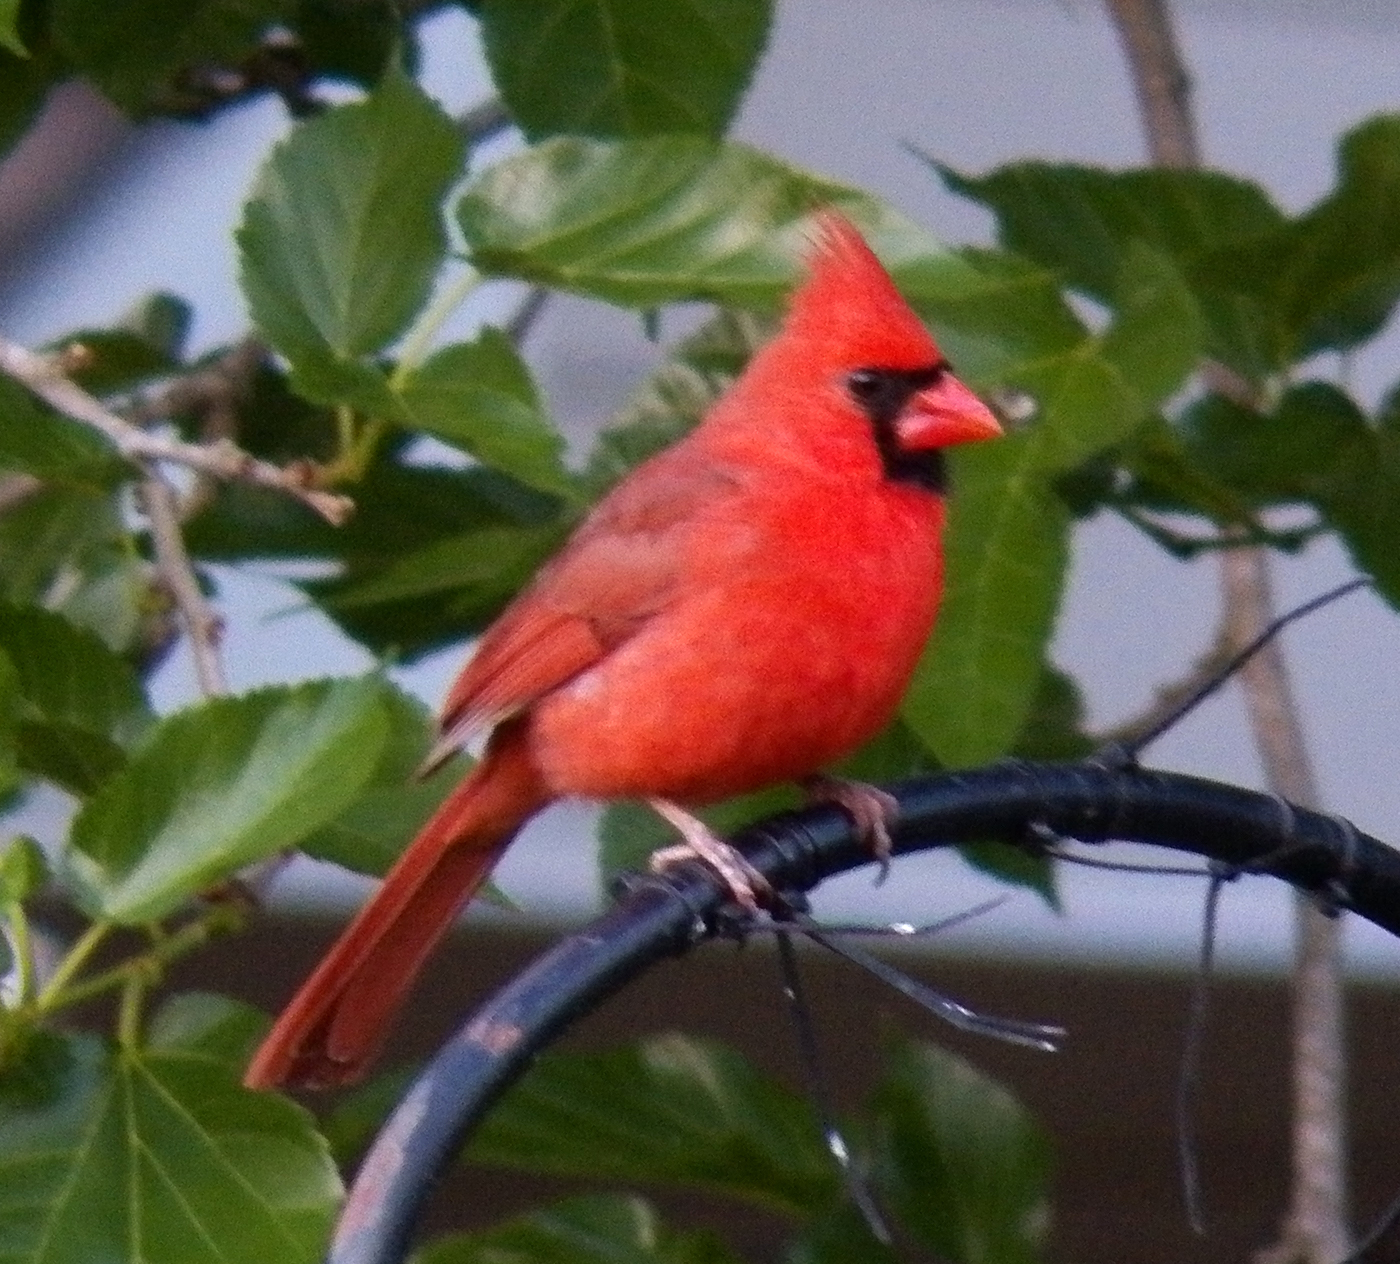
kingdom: Animalia
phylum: Chordata
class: Aves
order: Passeriformes
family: Cardinalidae
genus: Cardinalis
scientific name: Cardinalis cardinalis
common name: Northern cardinal
